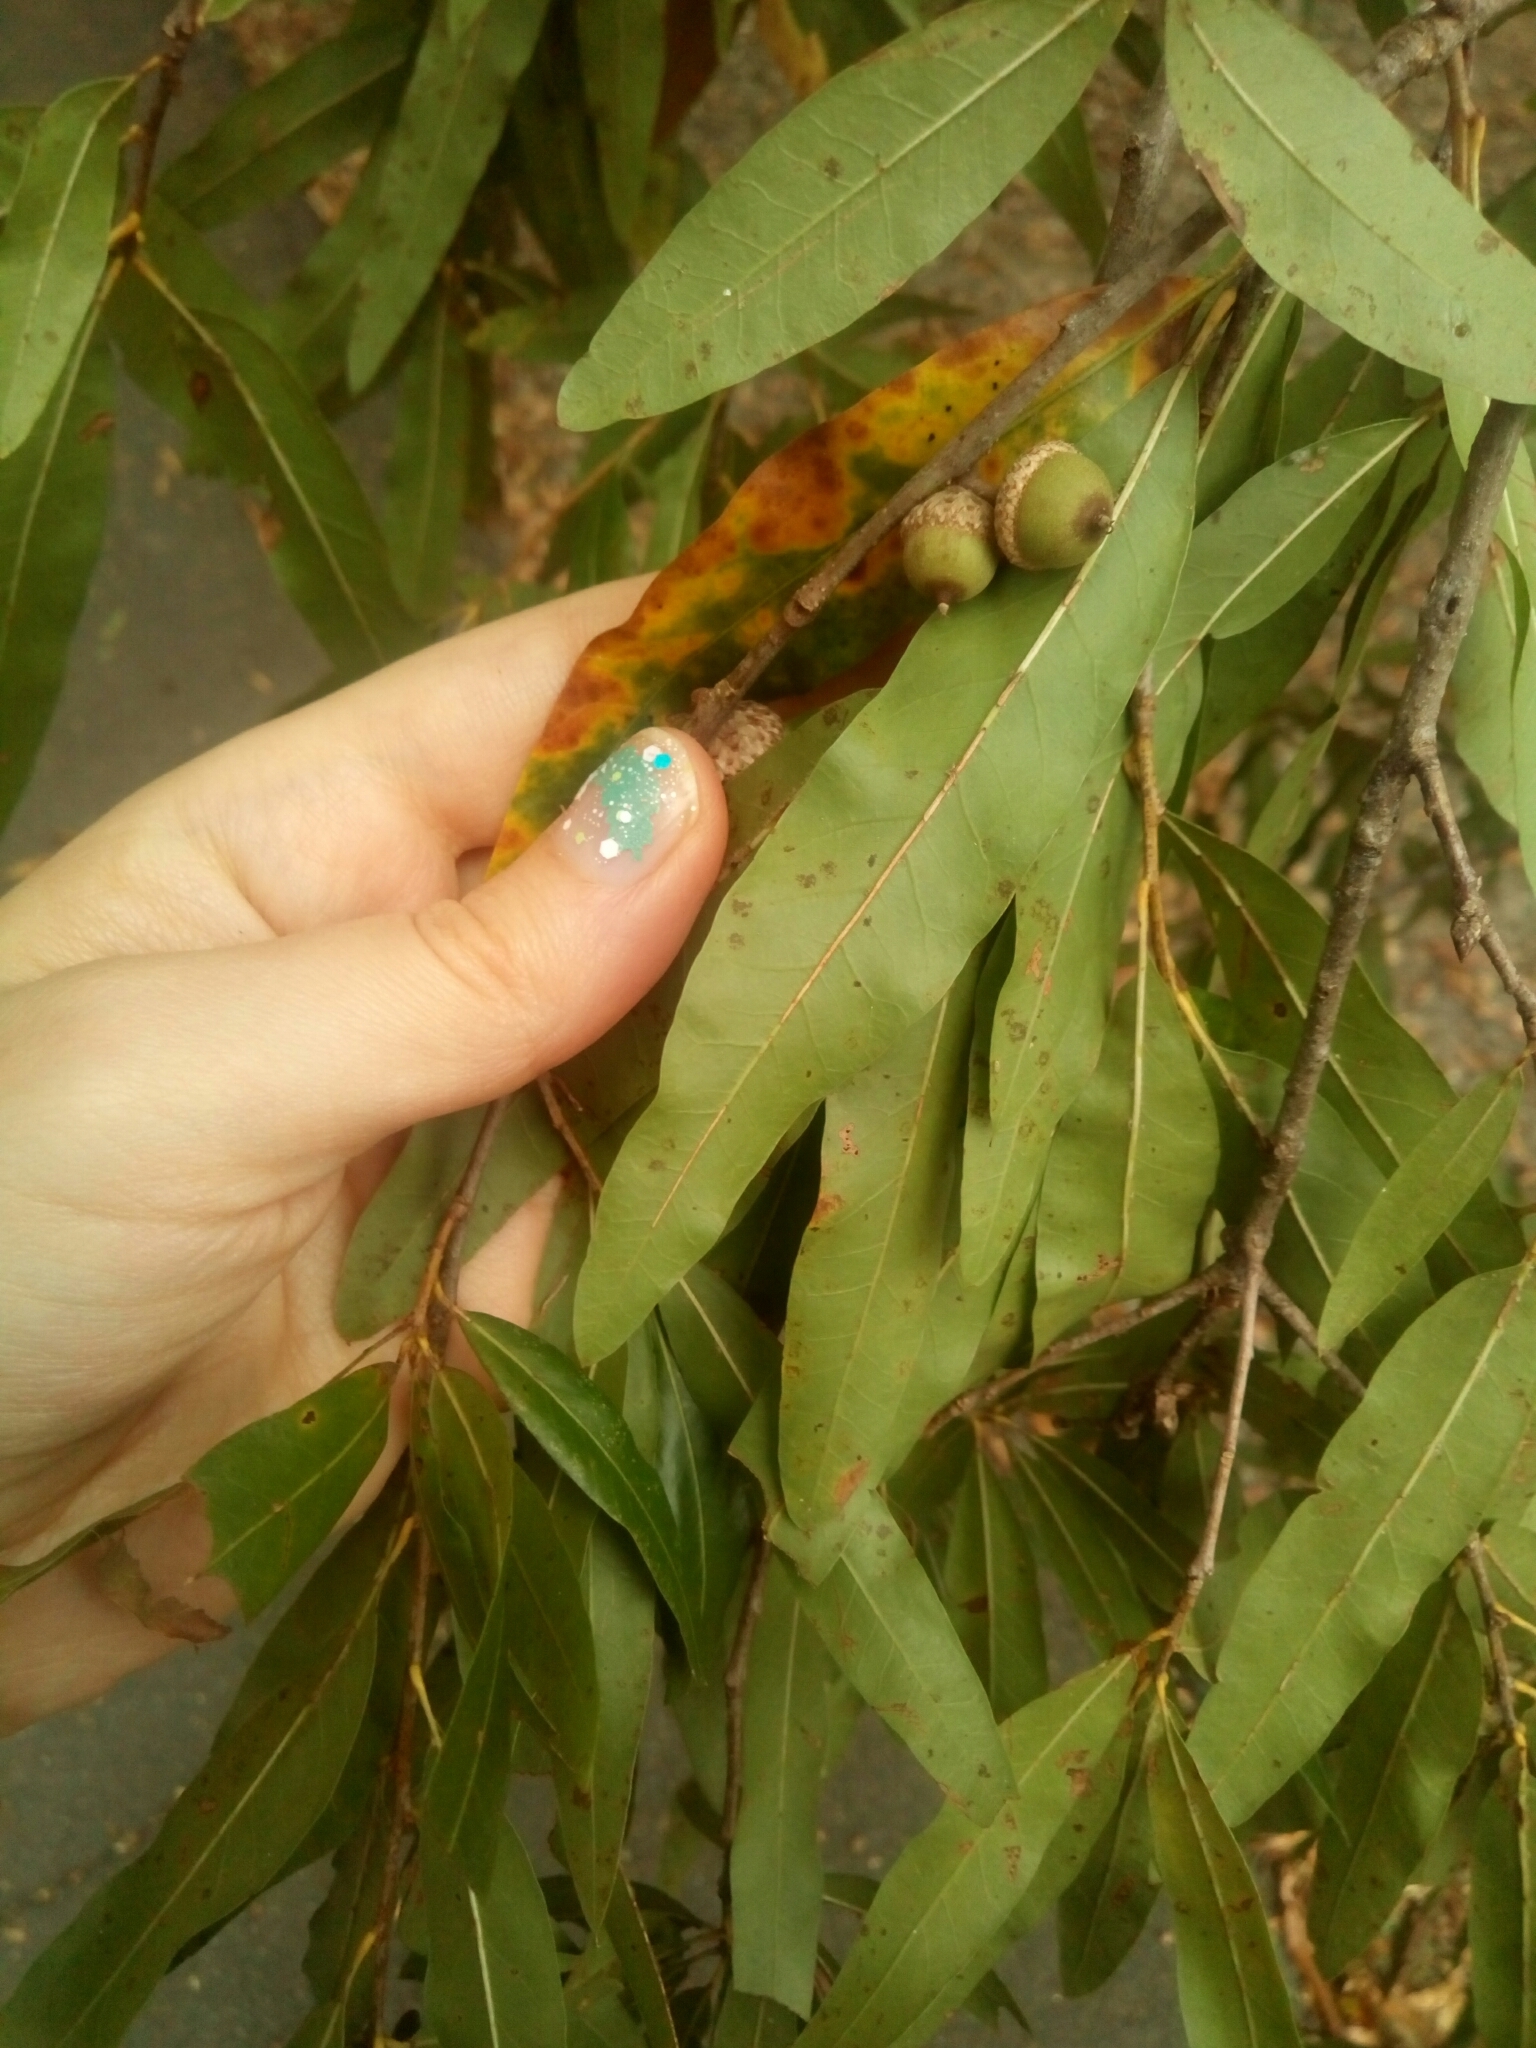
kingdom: Plantae
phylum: Tracheophyta
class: Magnoliopsida
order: Fagales
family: Fagaceae
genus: Quercus
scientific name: Quercus phellos
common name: Willow oak
